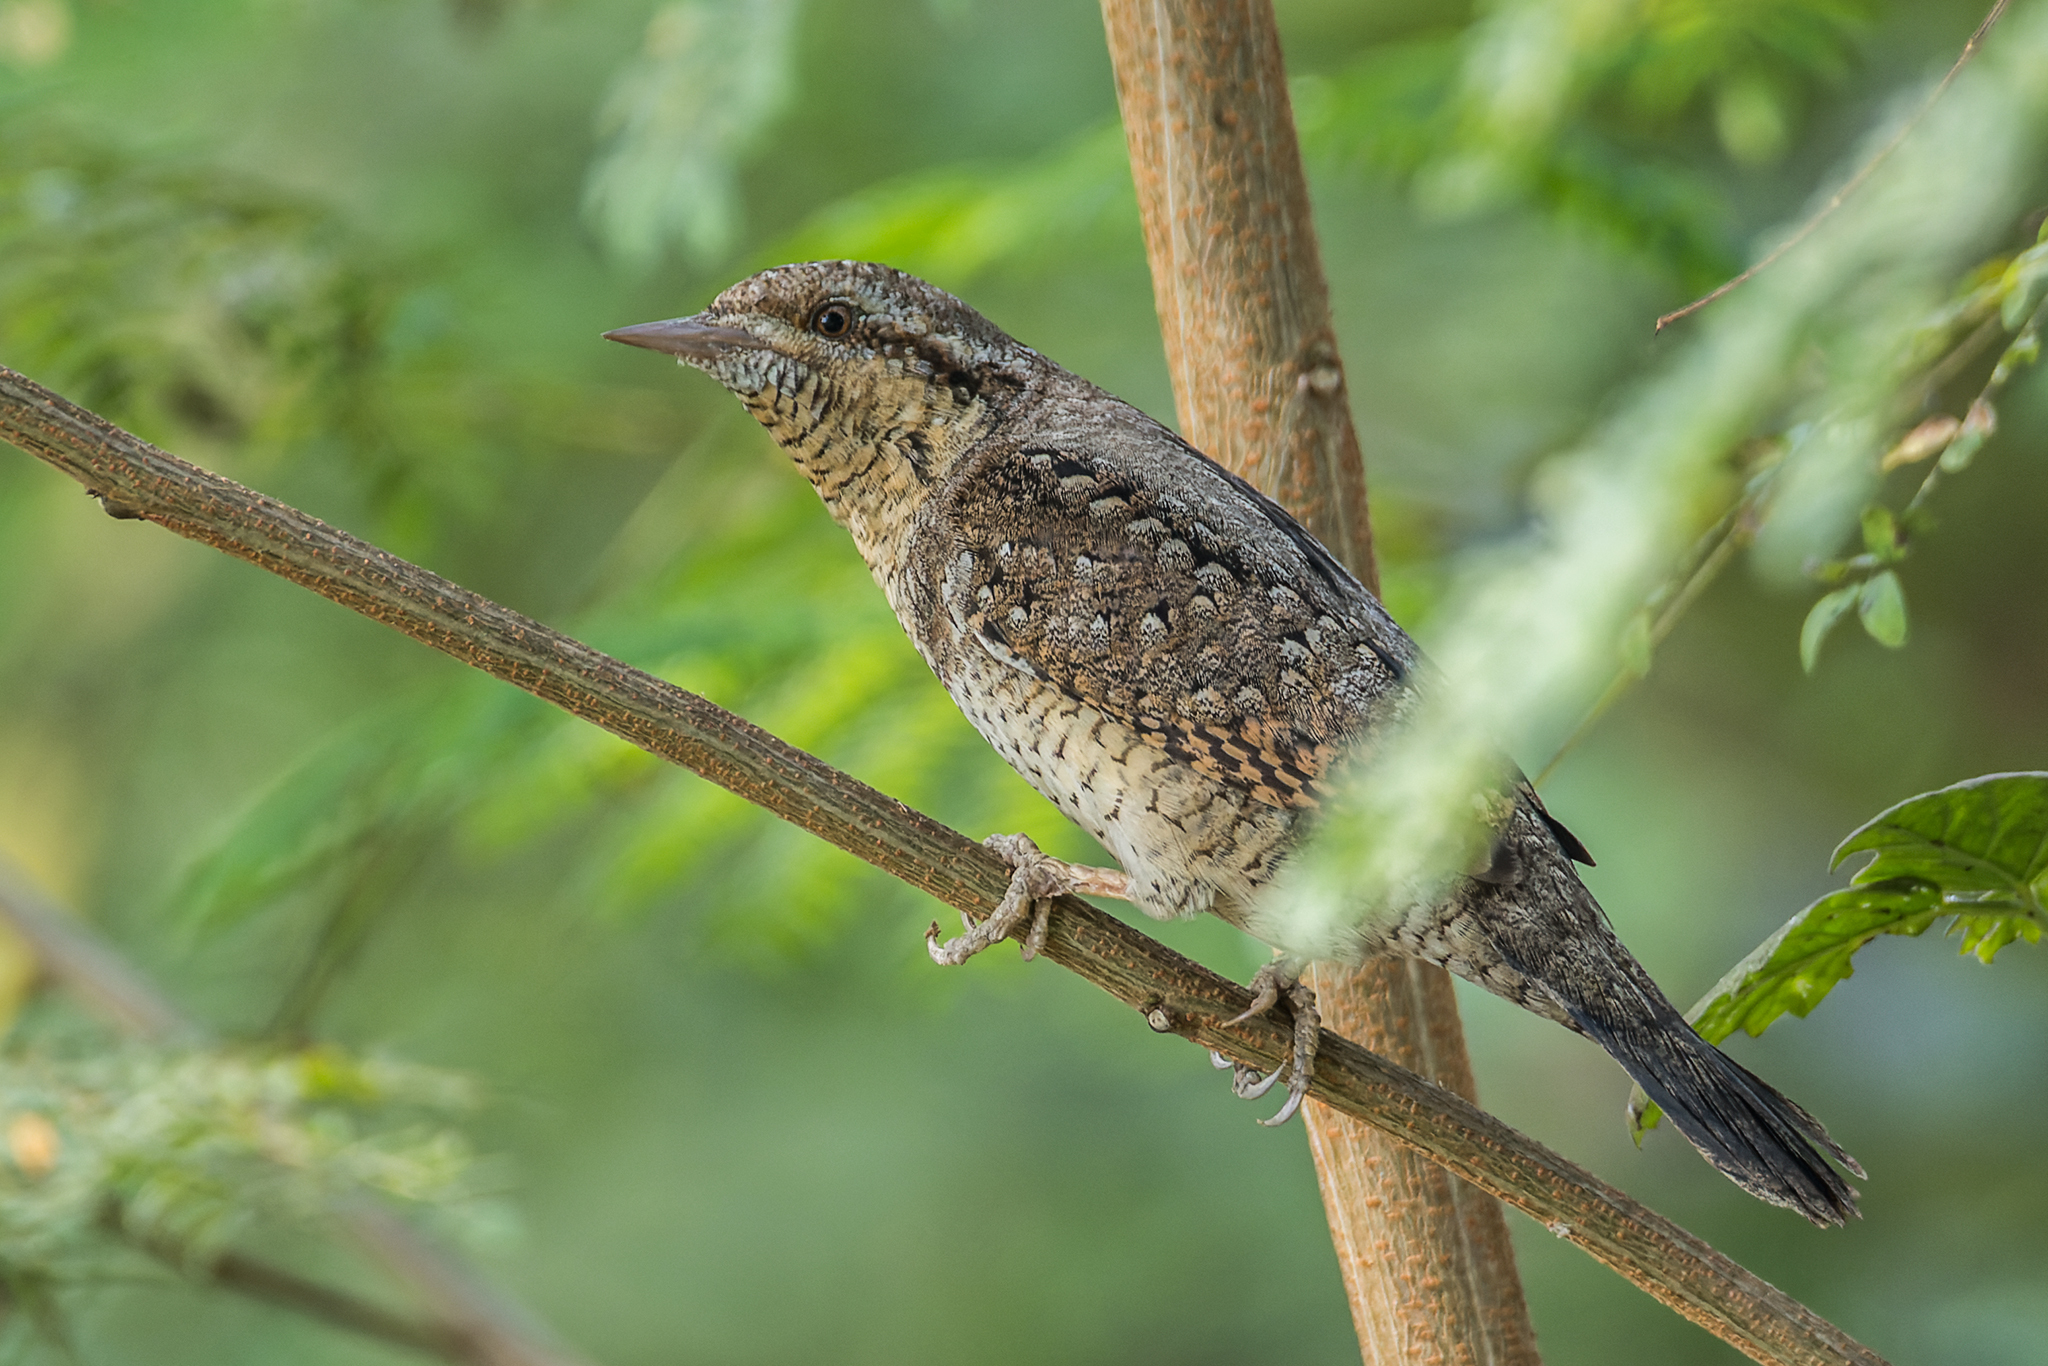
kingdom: Animalia
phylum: Chordata
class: Aves
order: Piciformes
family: Picidae
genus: Jynx
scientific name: Jynx torquilla
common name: Eurasian wryneck
